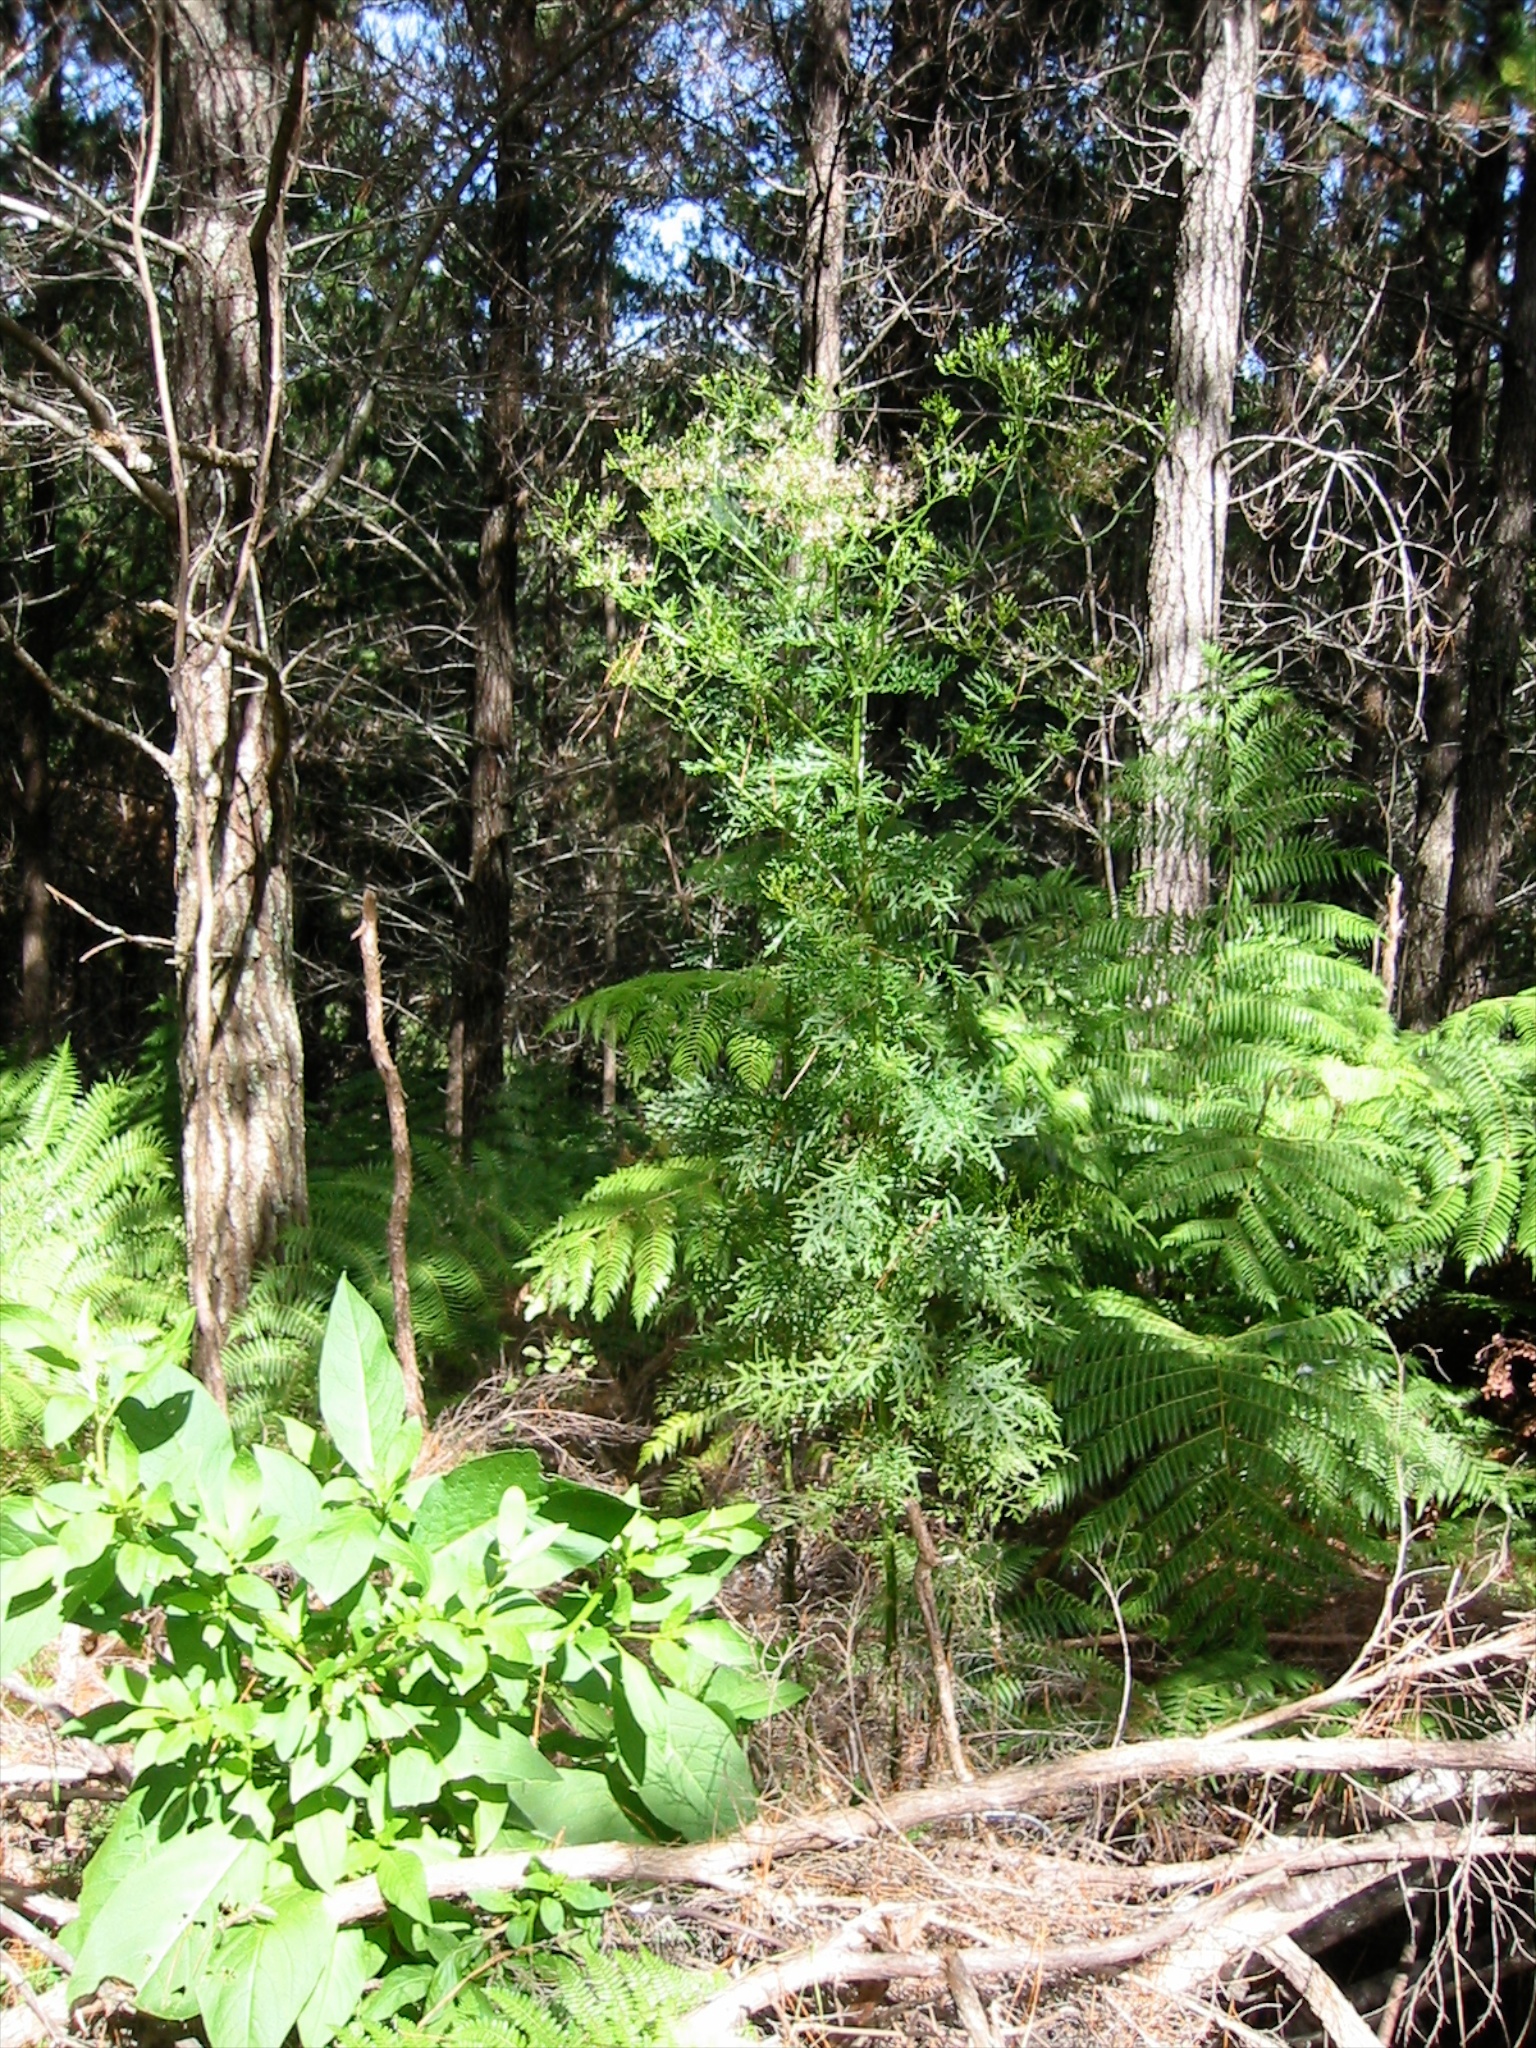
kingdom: Plantae
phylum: Tracheophyta
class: Magnoliopsida
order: Asterales
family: Asteraceae
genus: Senecio
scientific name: Senecio bipinnatisectus
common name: Australian fireweed
